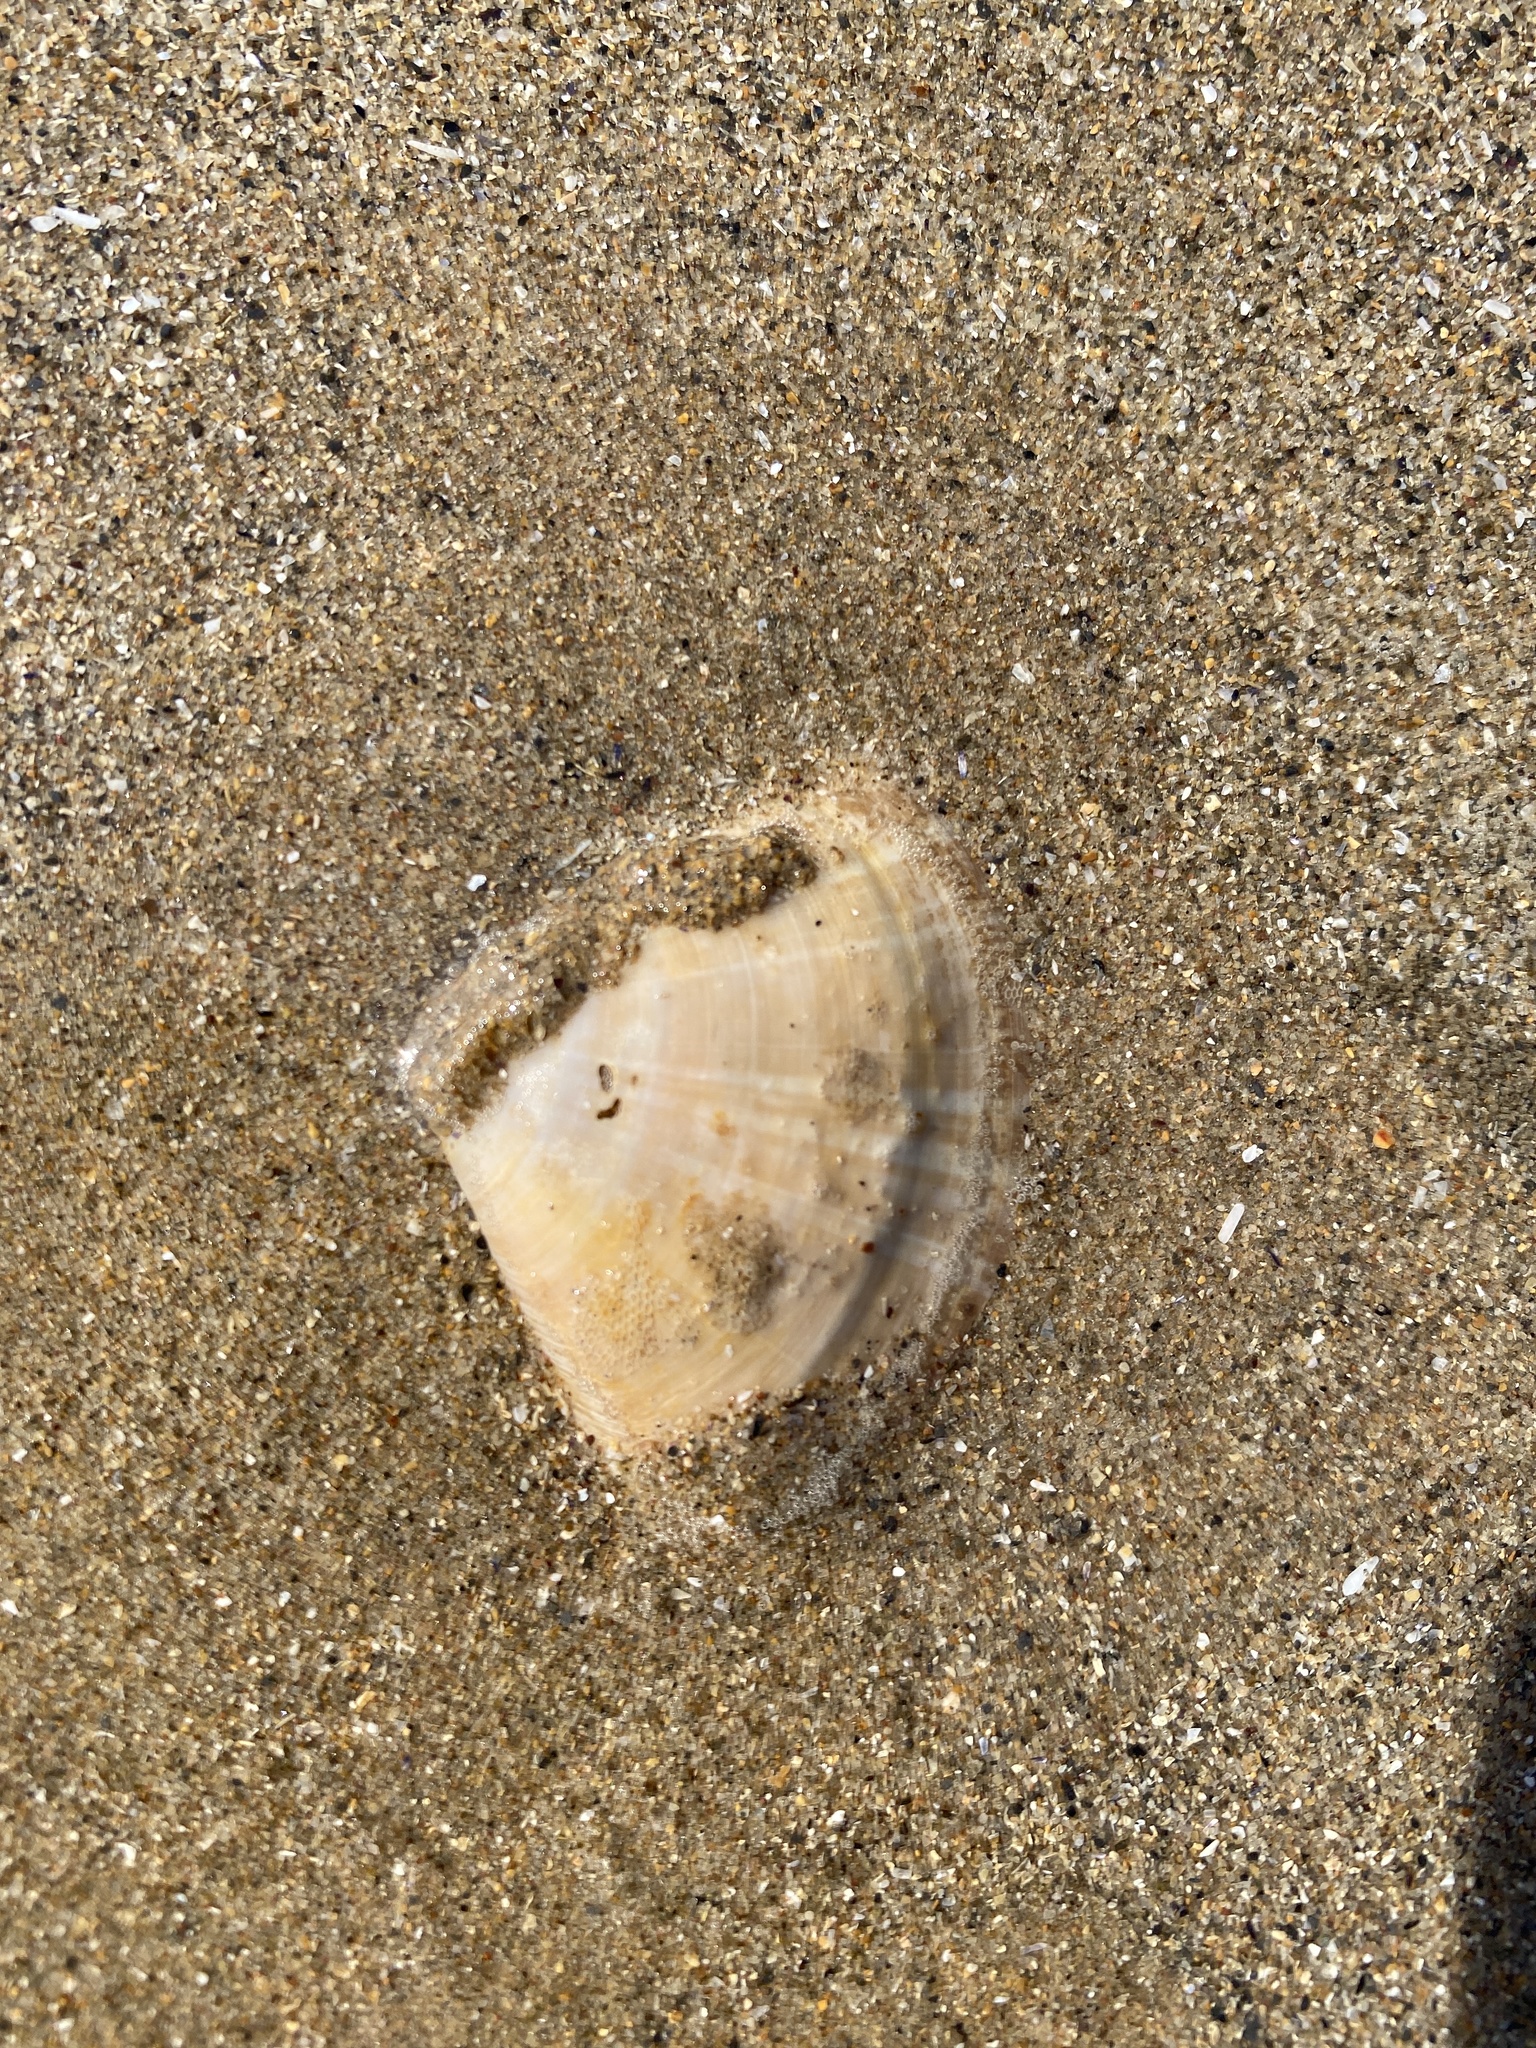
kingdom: Animalia
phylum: Mollusca
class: Bivalvia
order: Venerida
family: Mactridae
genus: Mactra
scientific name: Mactra stultorum
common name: Rayed trough shell
